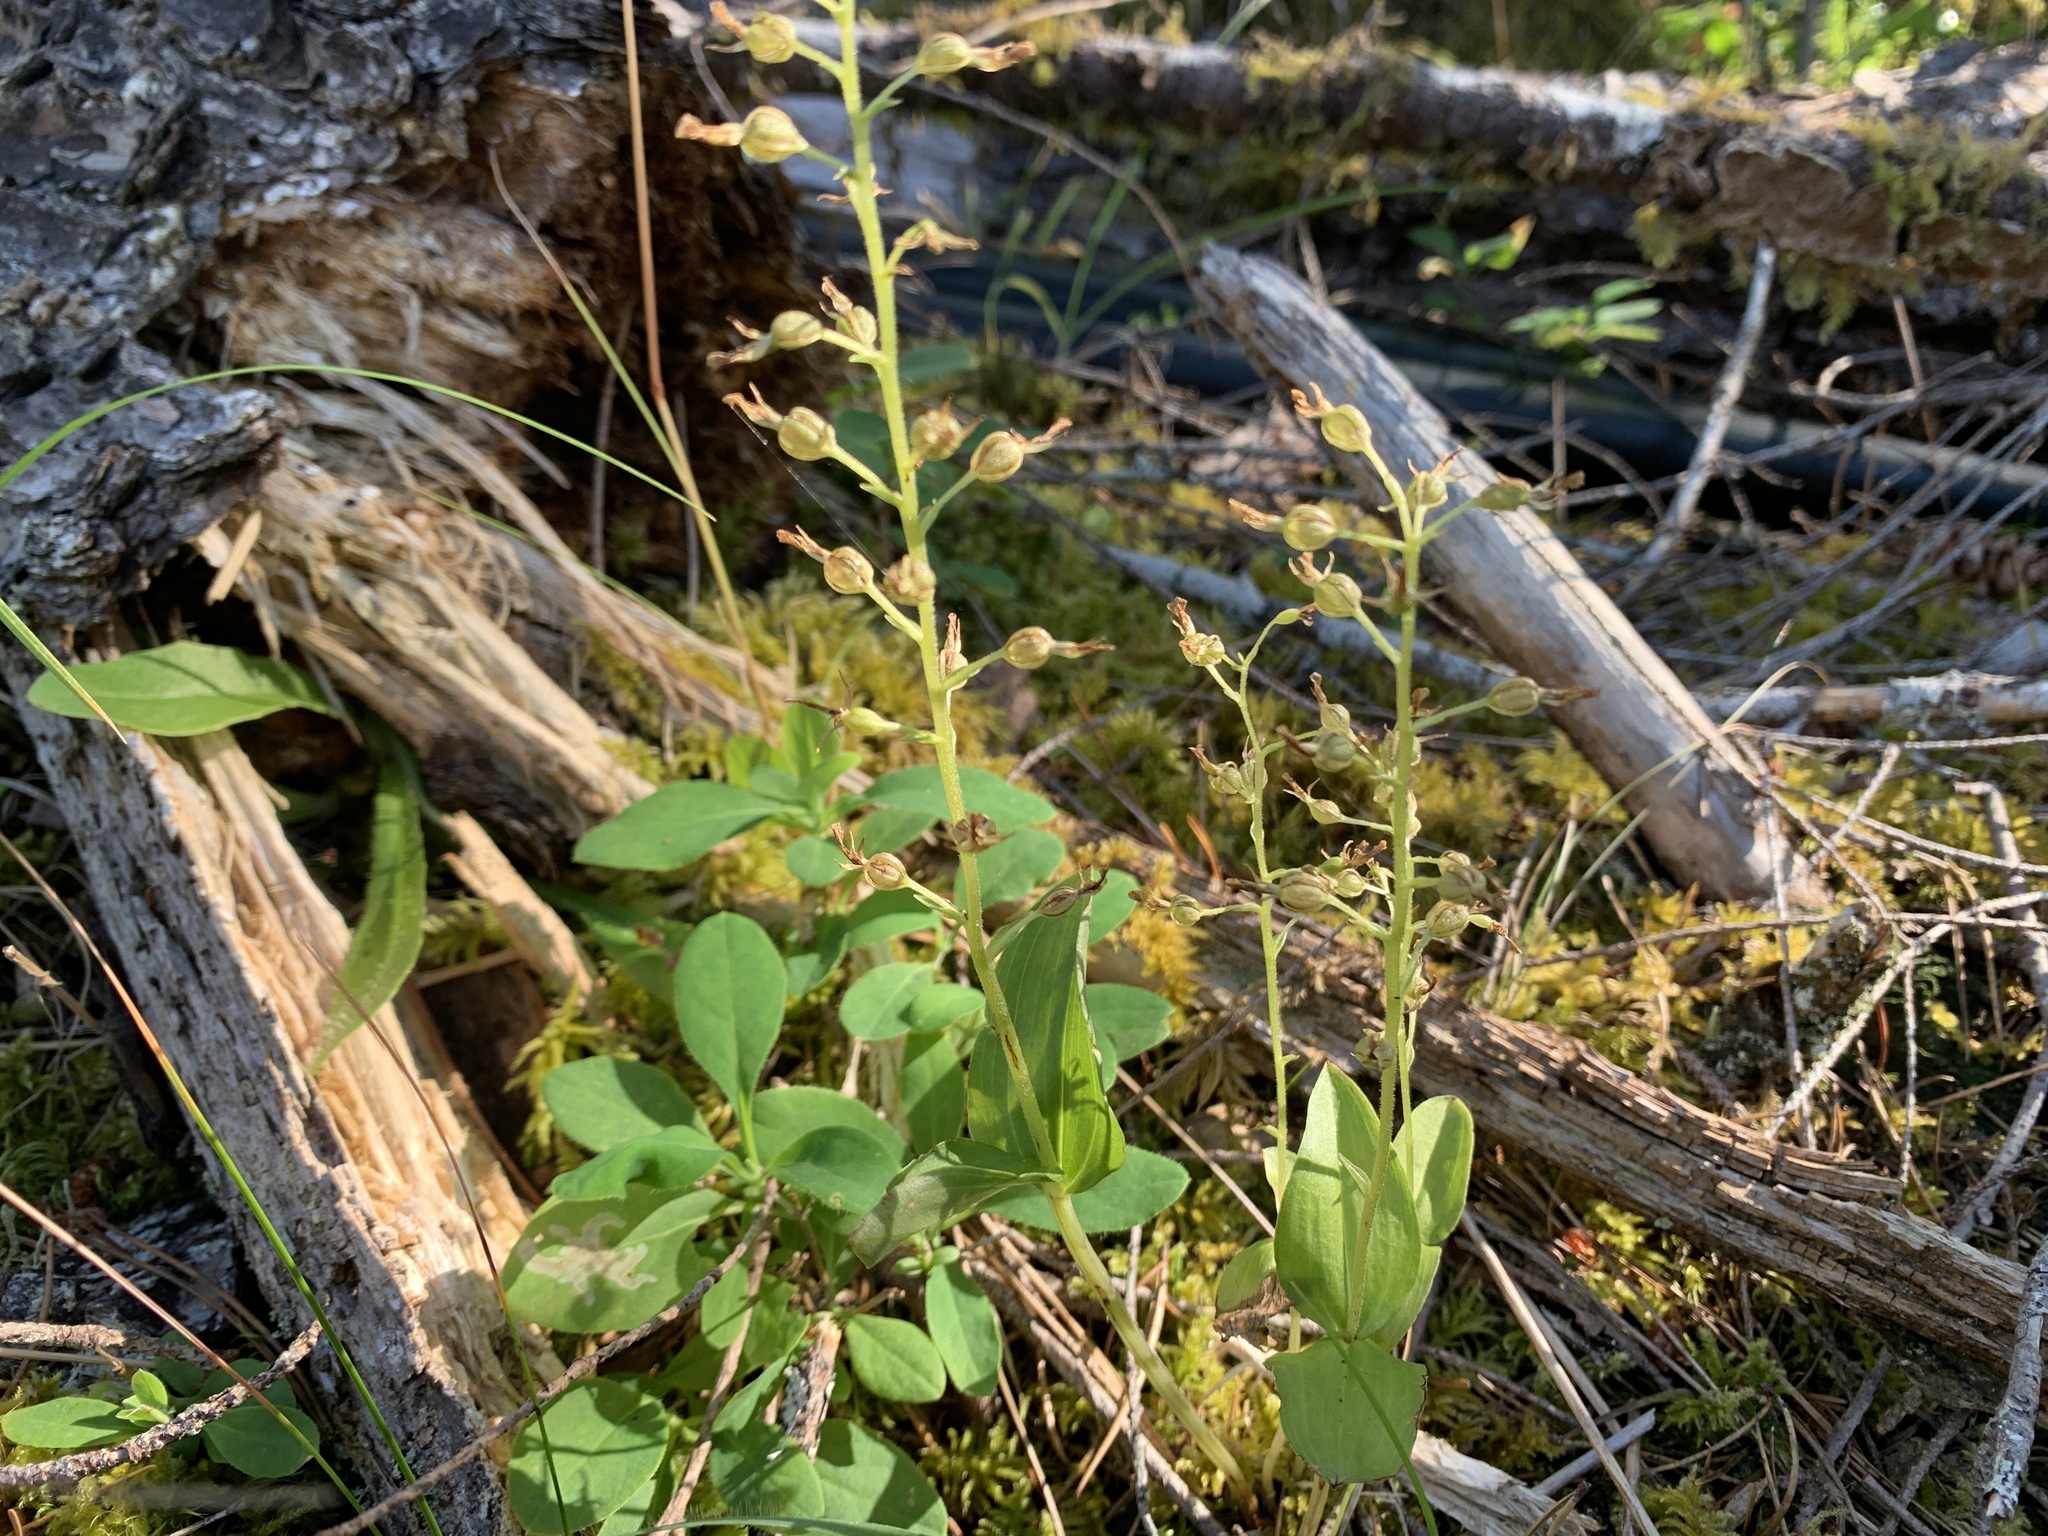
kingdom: Plantae
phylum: Tracheophyta
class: Liliopsida
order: Asparagales
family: Orchidaceae
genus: Neottia
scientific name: Neottia banksiana
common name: Northwestern twayblade
